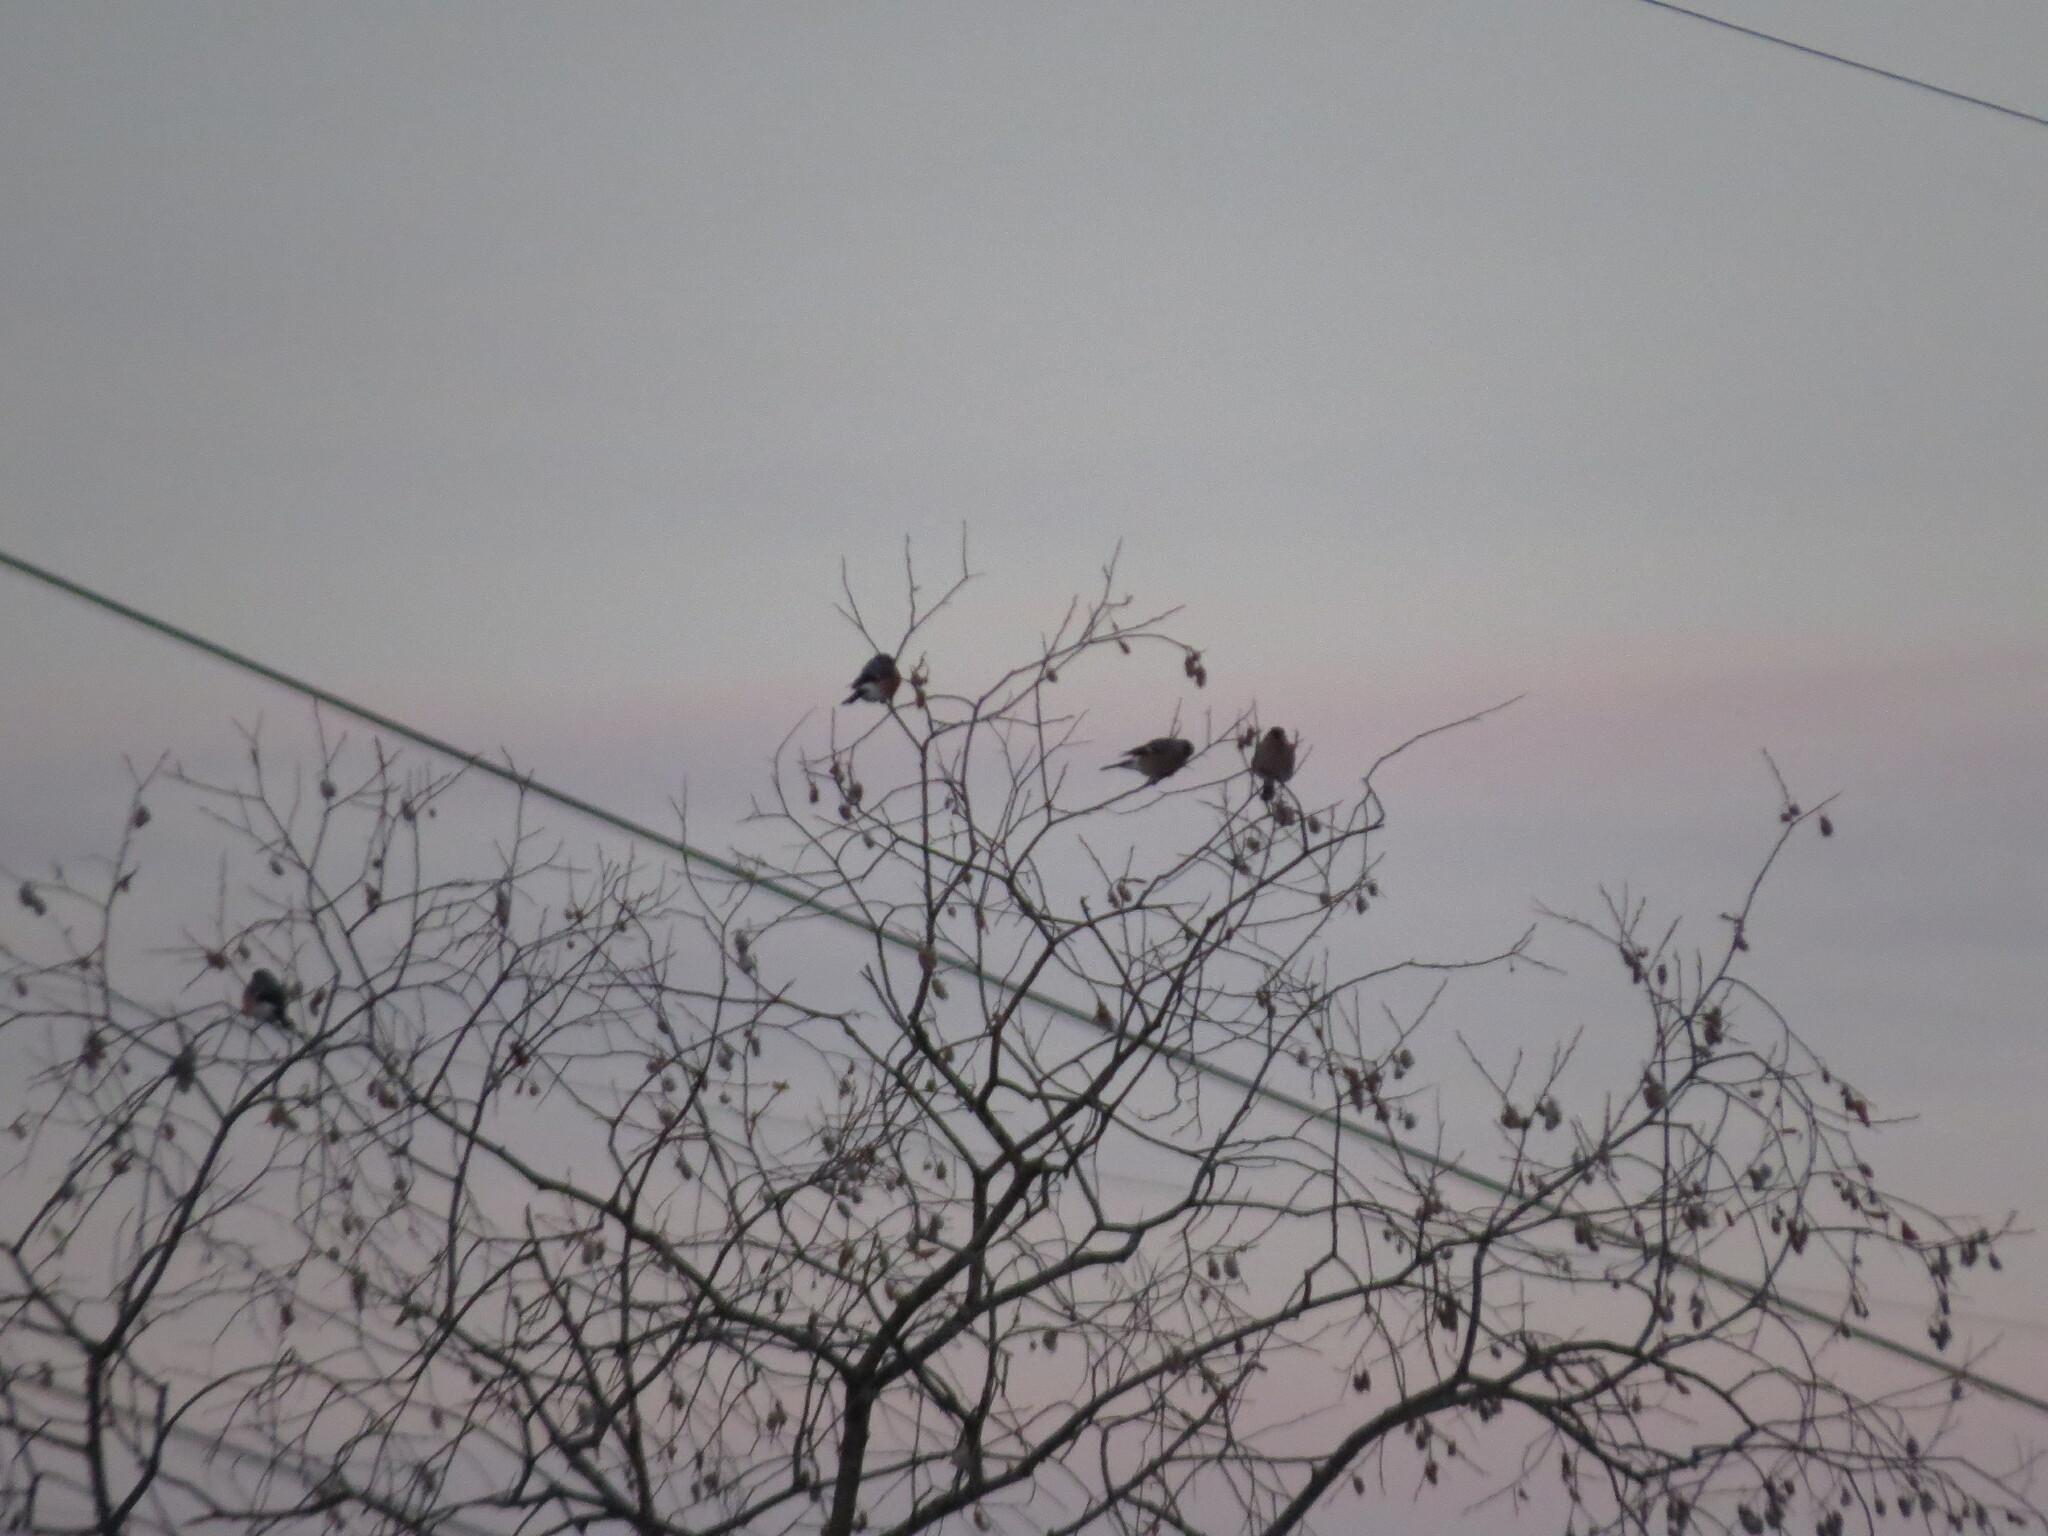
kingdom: Animalia
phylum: Chordata
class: Aves
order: Passeriformes
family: Fringillidae
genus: Pyrrhula
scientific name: Pyrrhula pyrrhula
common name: Eurasian bullfinch
